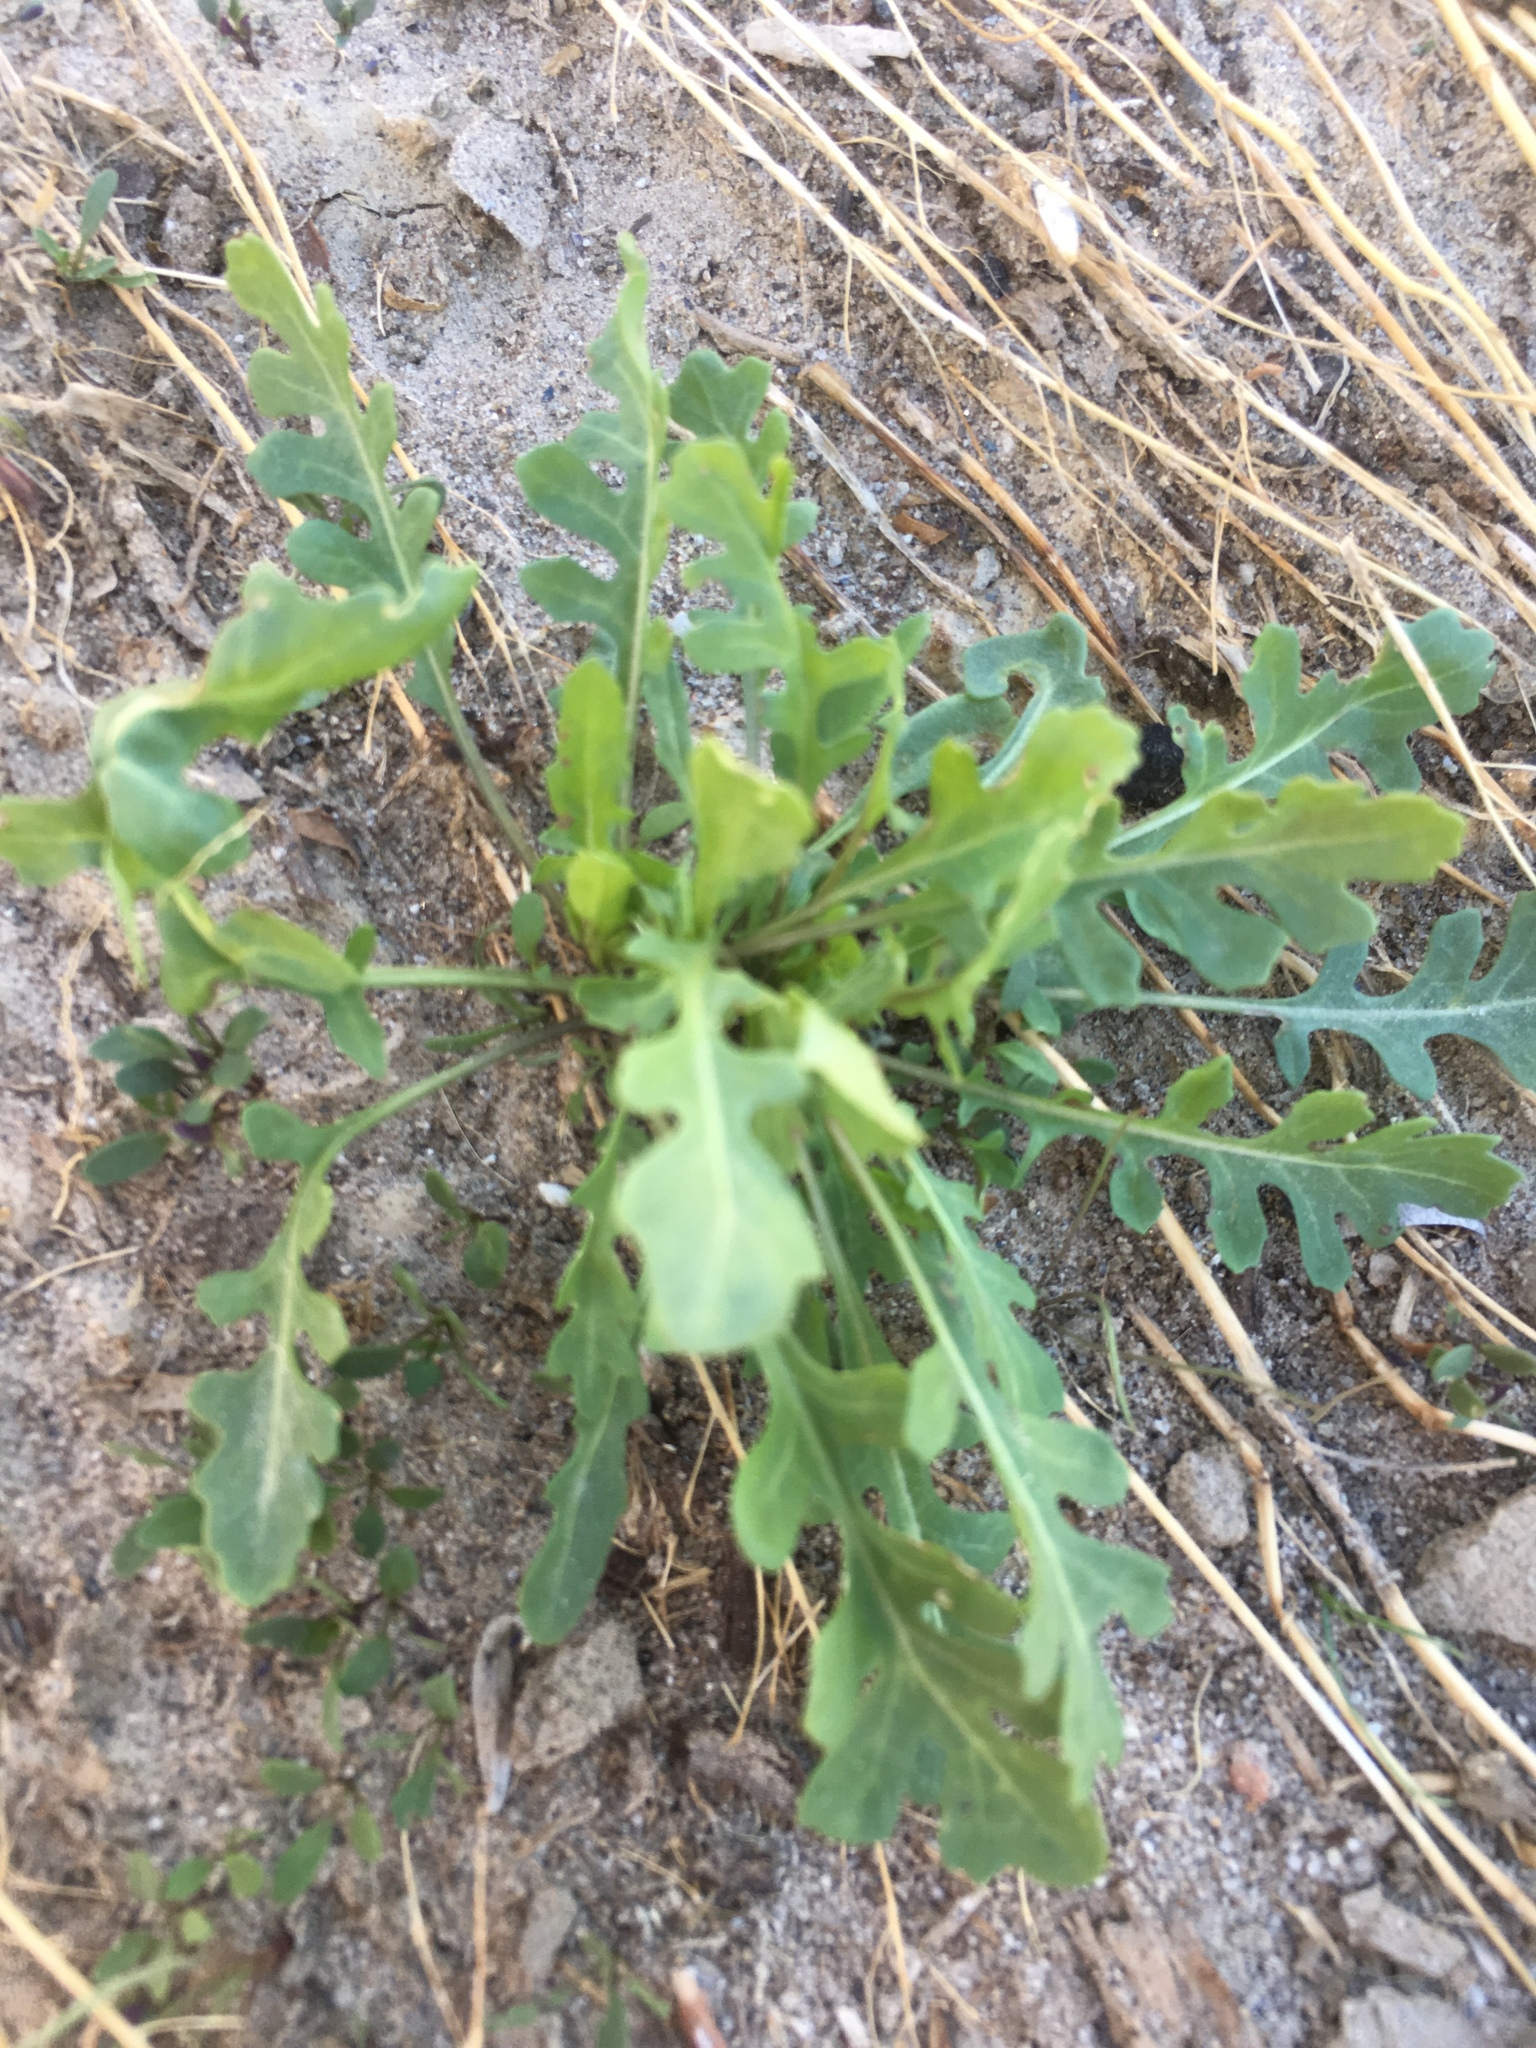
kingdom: Plantae
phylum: Tracheophyta
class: Magnoliopsida
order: Brassicales
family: Brassicaceae
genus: Sisymbrium
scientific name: Sisymbrium irio
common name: London rocket
